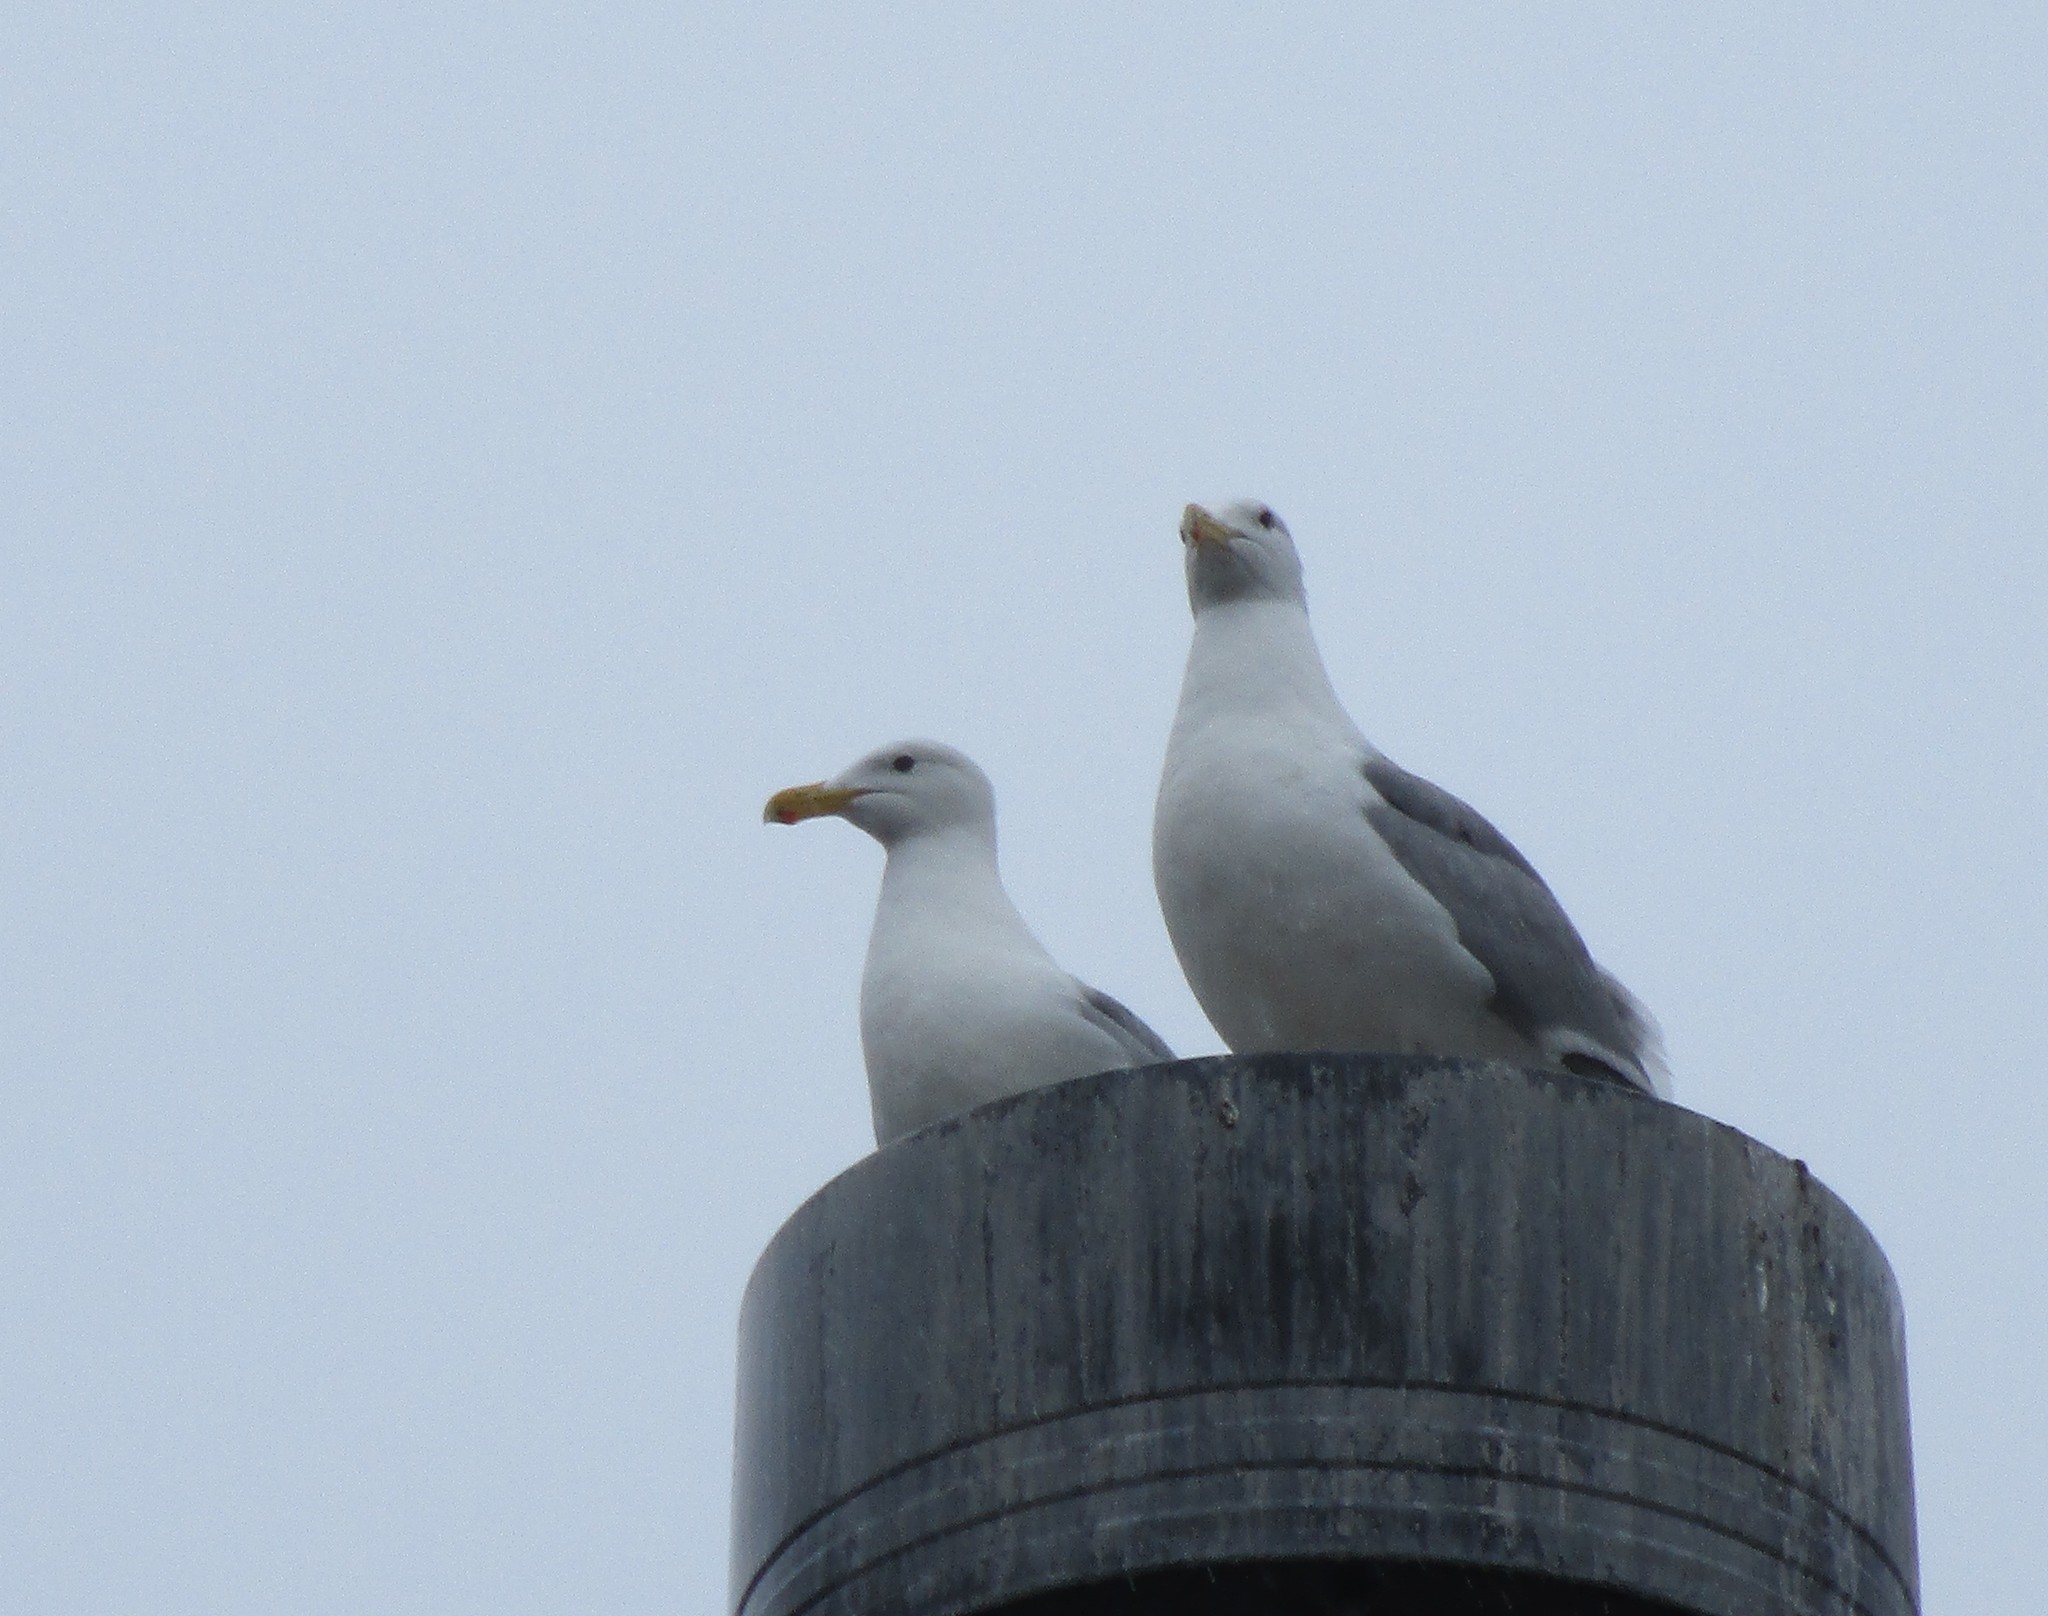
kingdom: Animalia
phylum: Chordata
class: Aves
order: Charadriiformes
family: Laridae
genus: Larus
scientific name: Larus glaucescens
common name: Glaucous-winged gull
